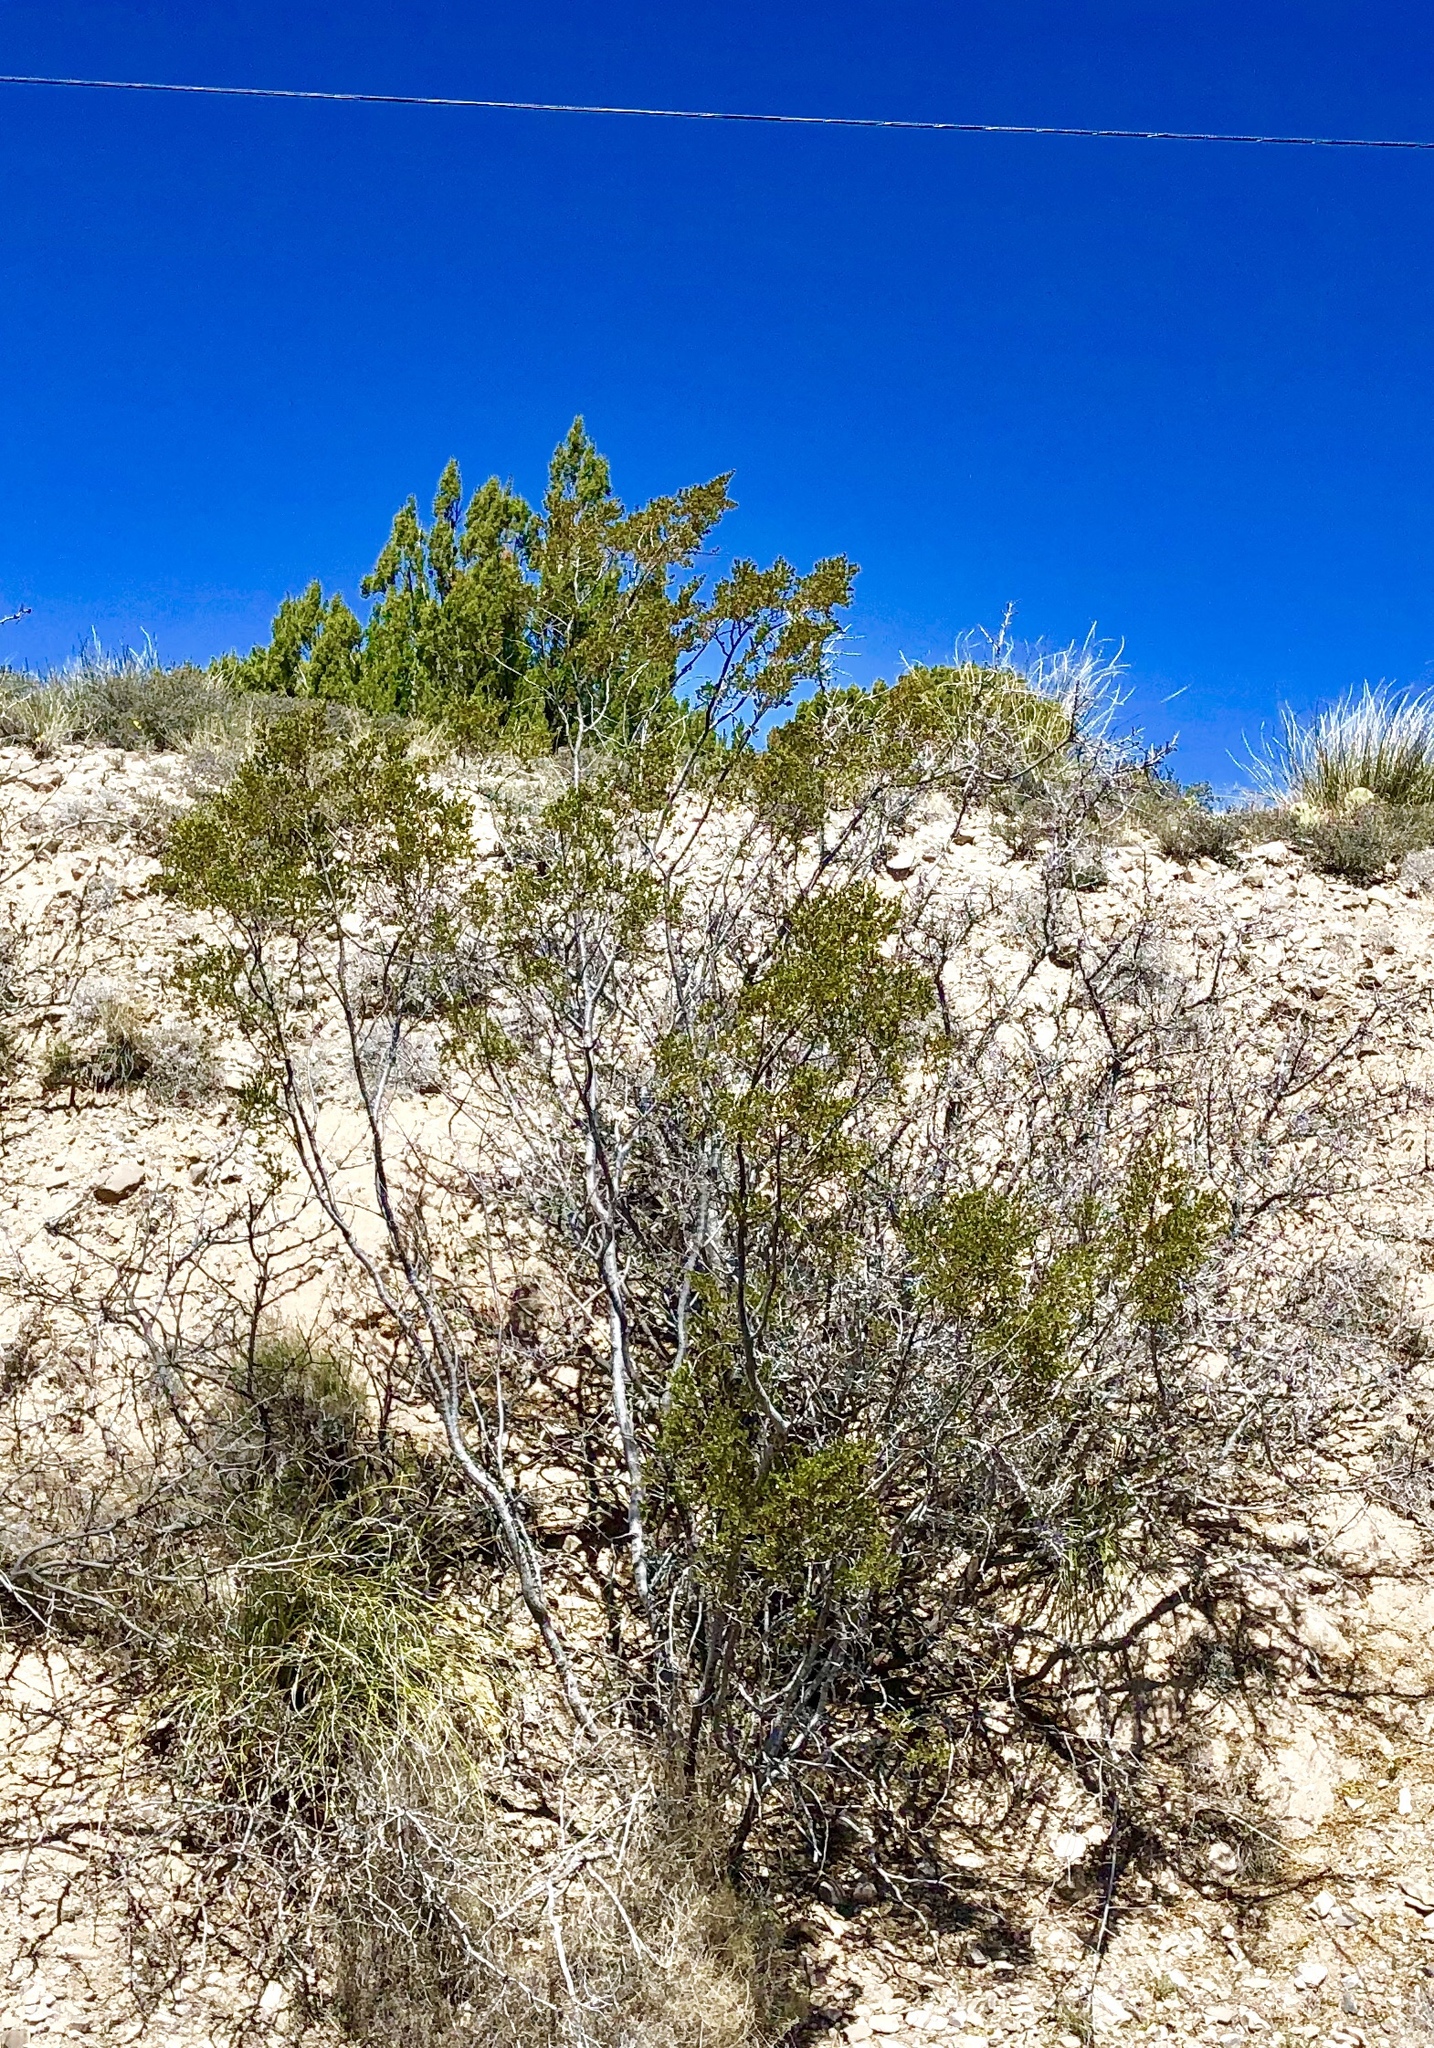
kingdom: Plantae
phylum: Tracheophyta
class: Magnoliopsida
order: Zygophyllales
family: Zygophyllaceae
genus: Larrea
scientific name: Larrea tridentata
